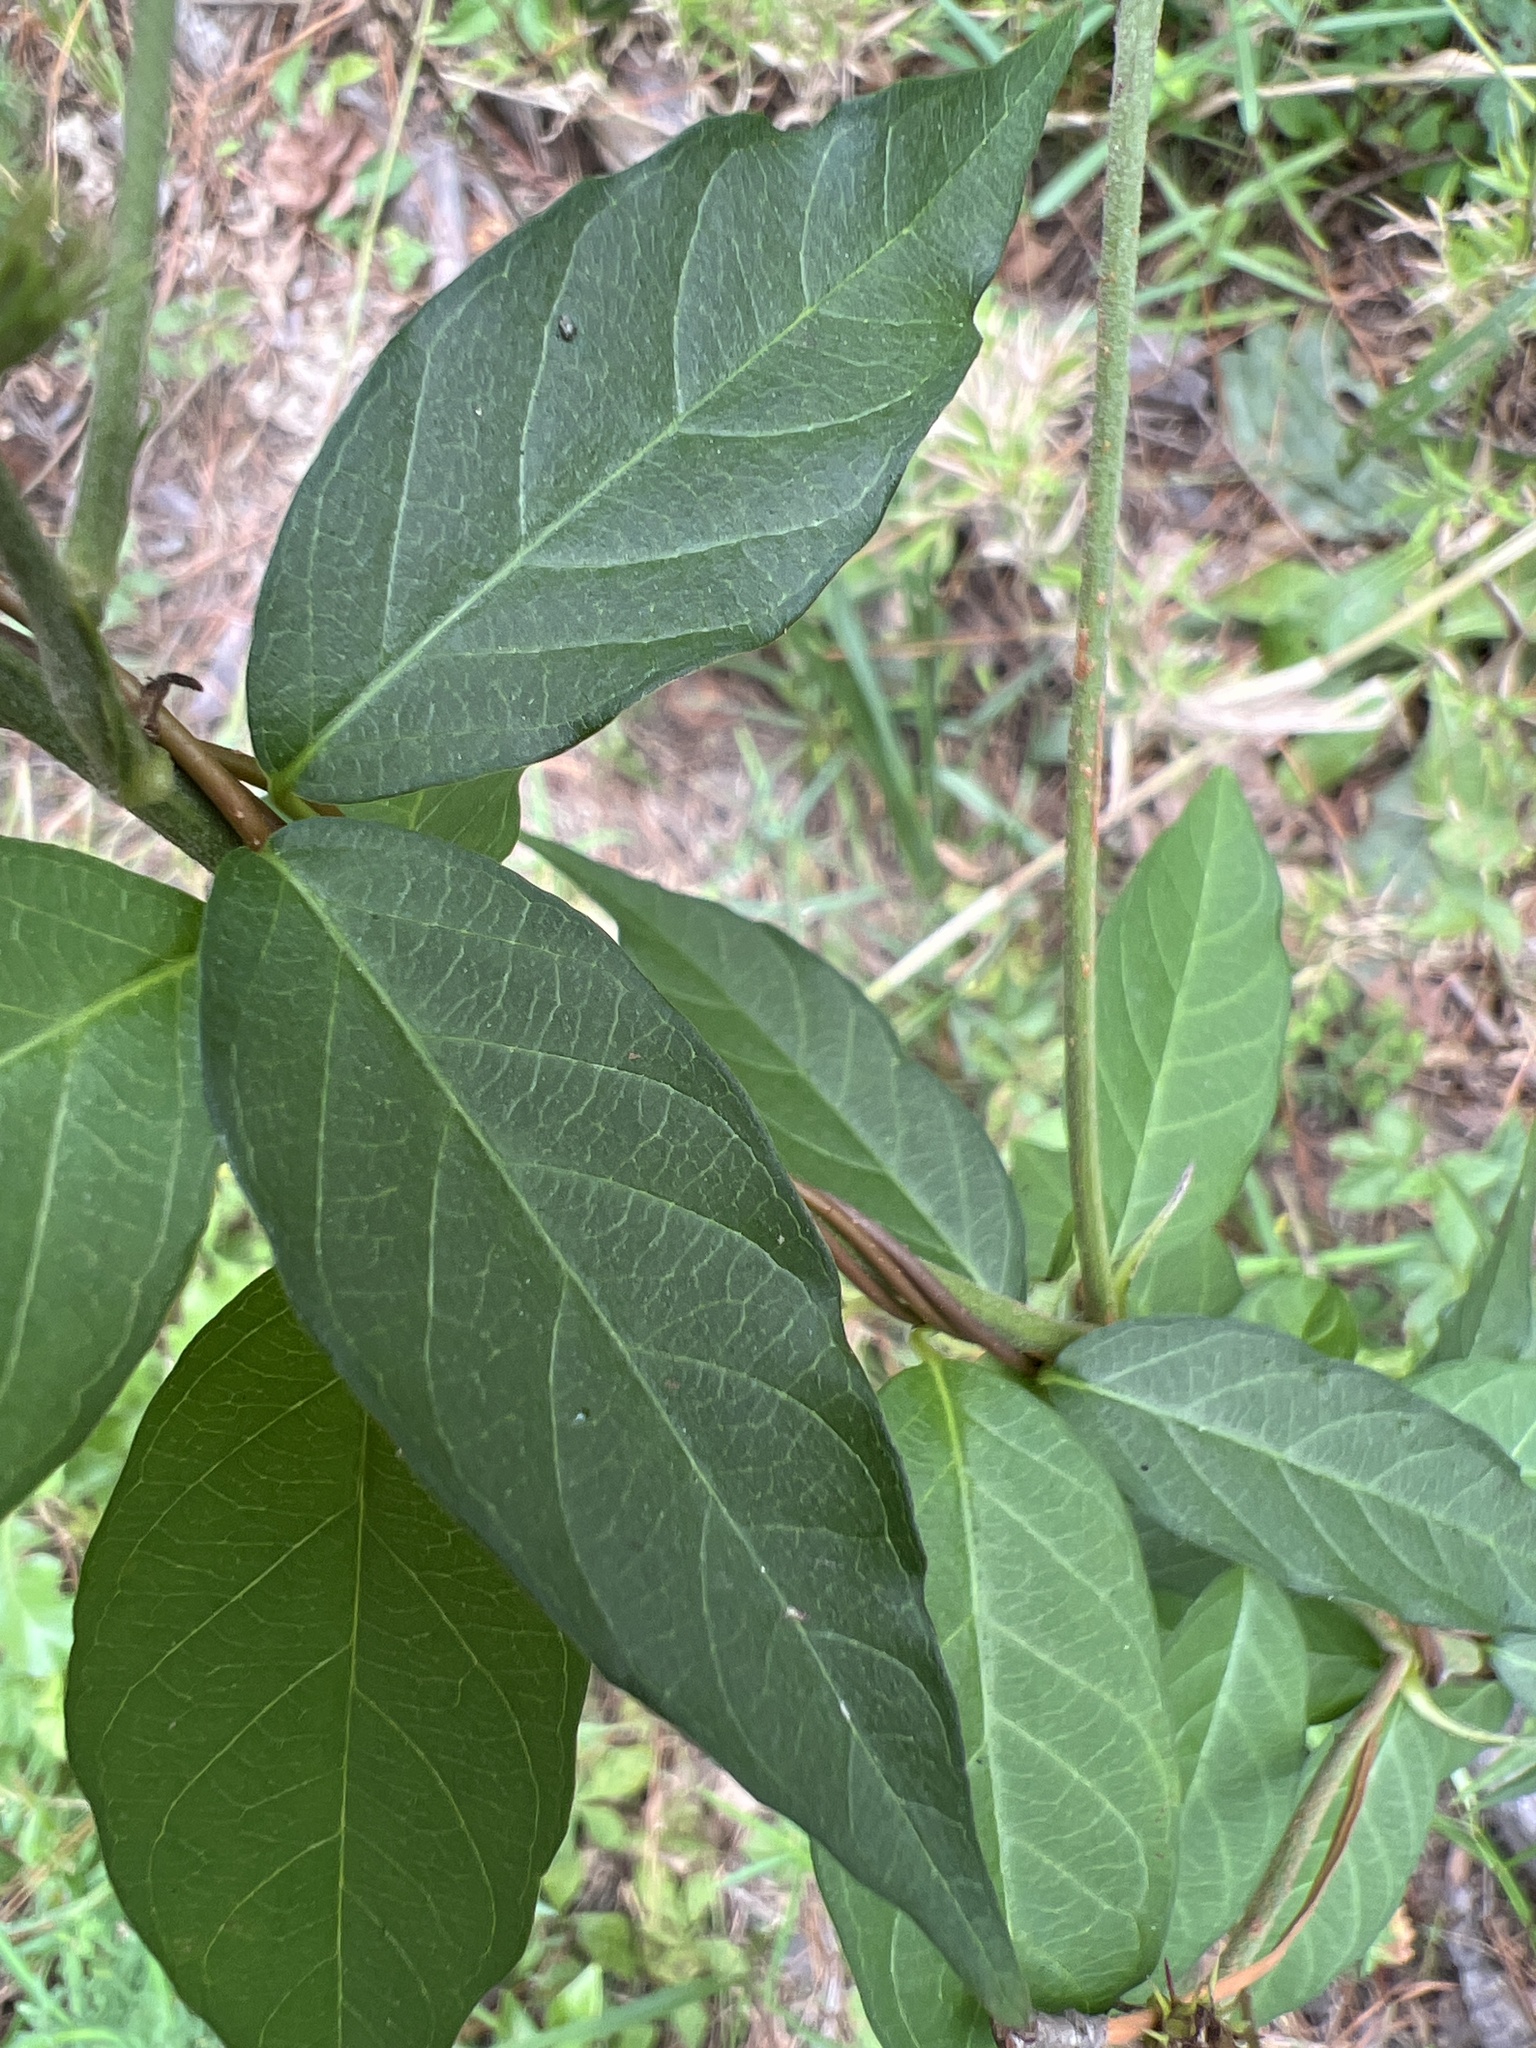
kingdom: Plantae
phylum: Tracheophyta
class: Magnoliopsida
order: Gentianales
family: Apocynaceae
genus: Thyrsanthella
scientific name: Thyrsanthella difformis
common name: Climbing dogbane
